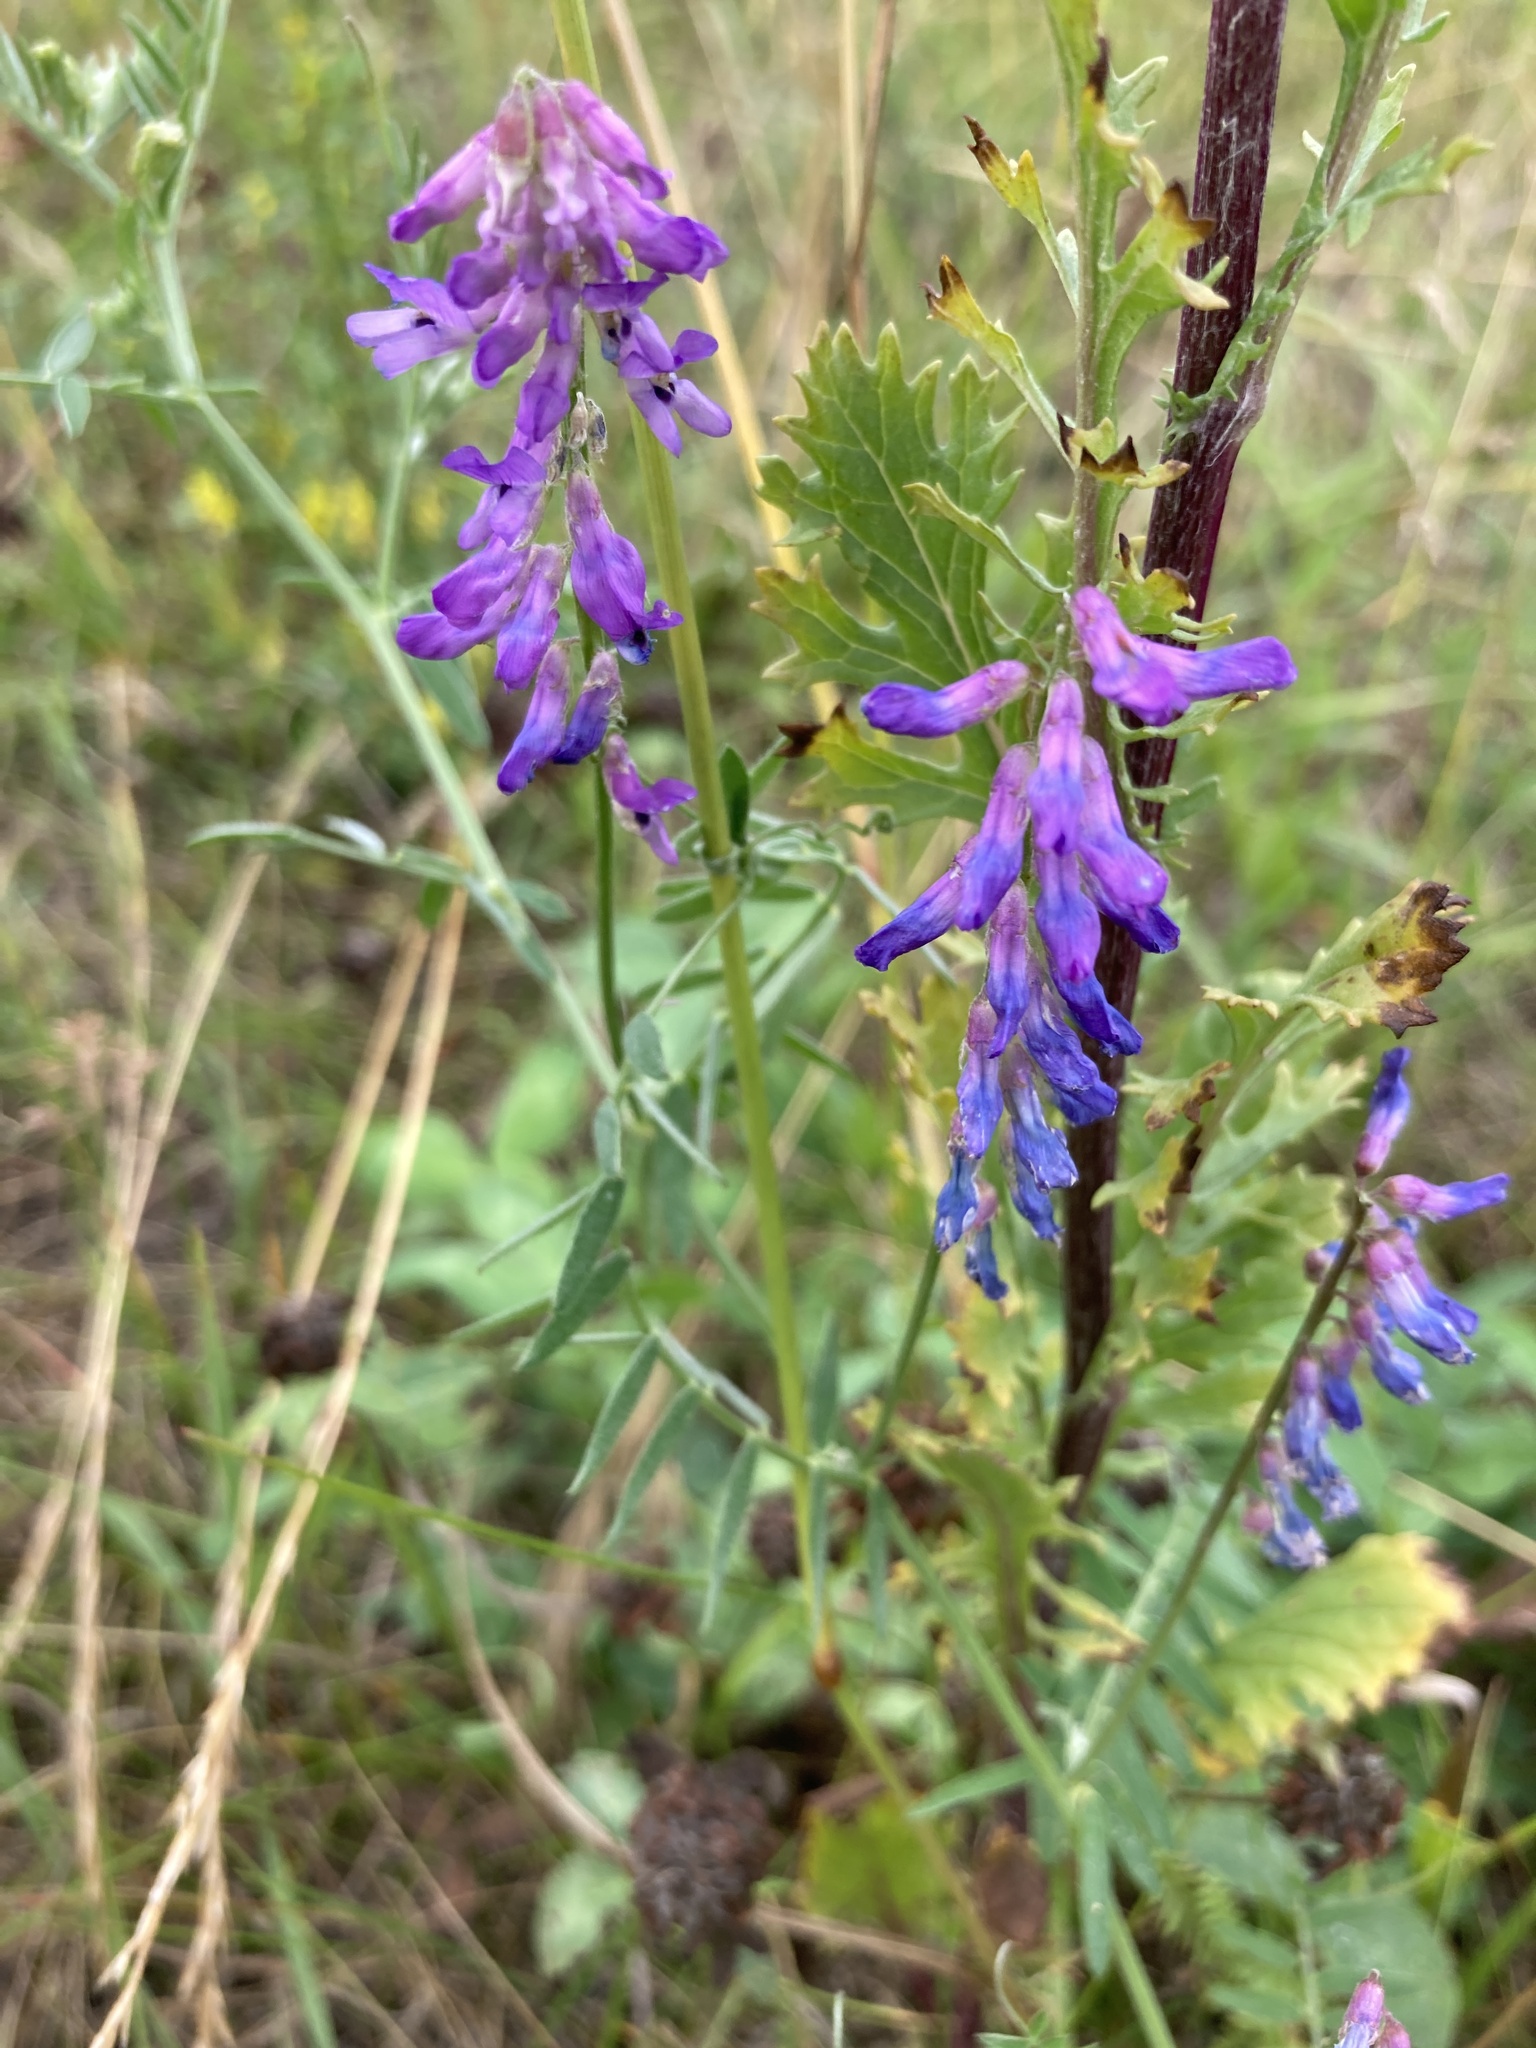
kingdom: Plantae
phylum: Tracheophyta
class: Magnoliopsida
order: Fabales
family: Fabaceae
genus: Vicia
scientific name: Vicia cracca
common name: Bird vetch
